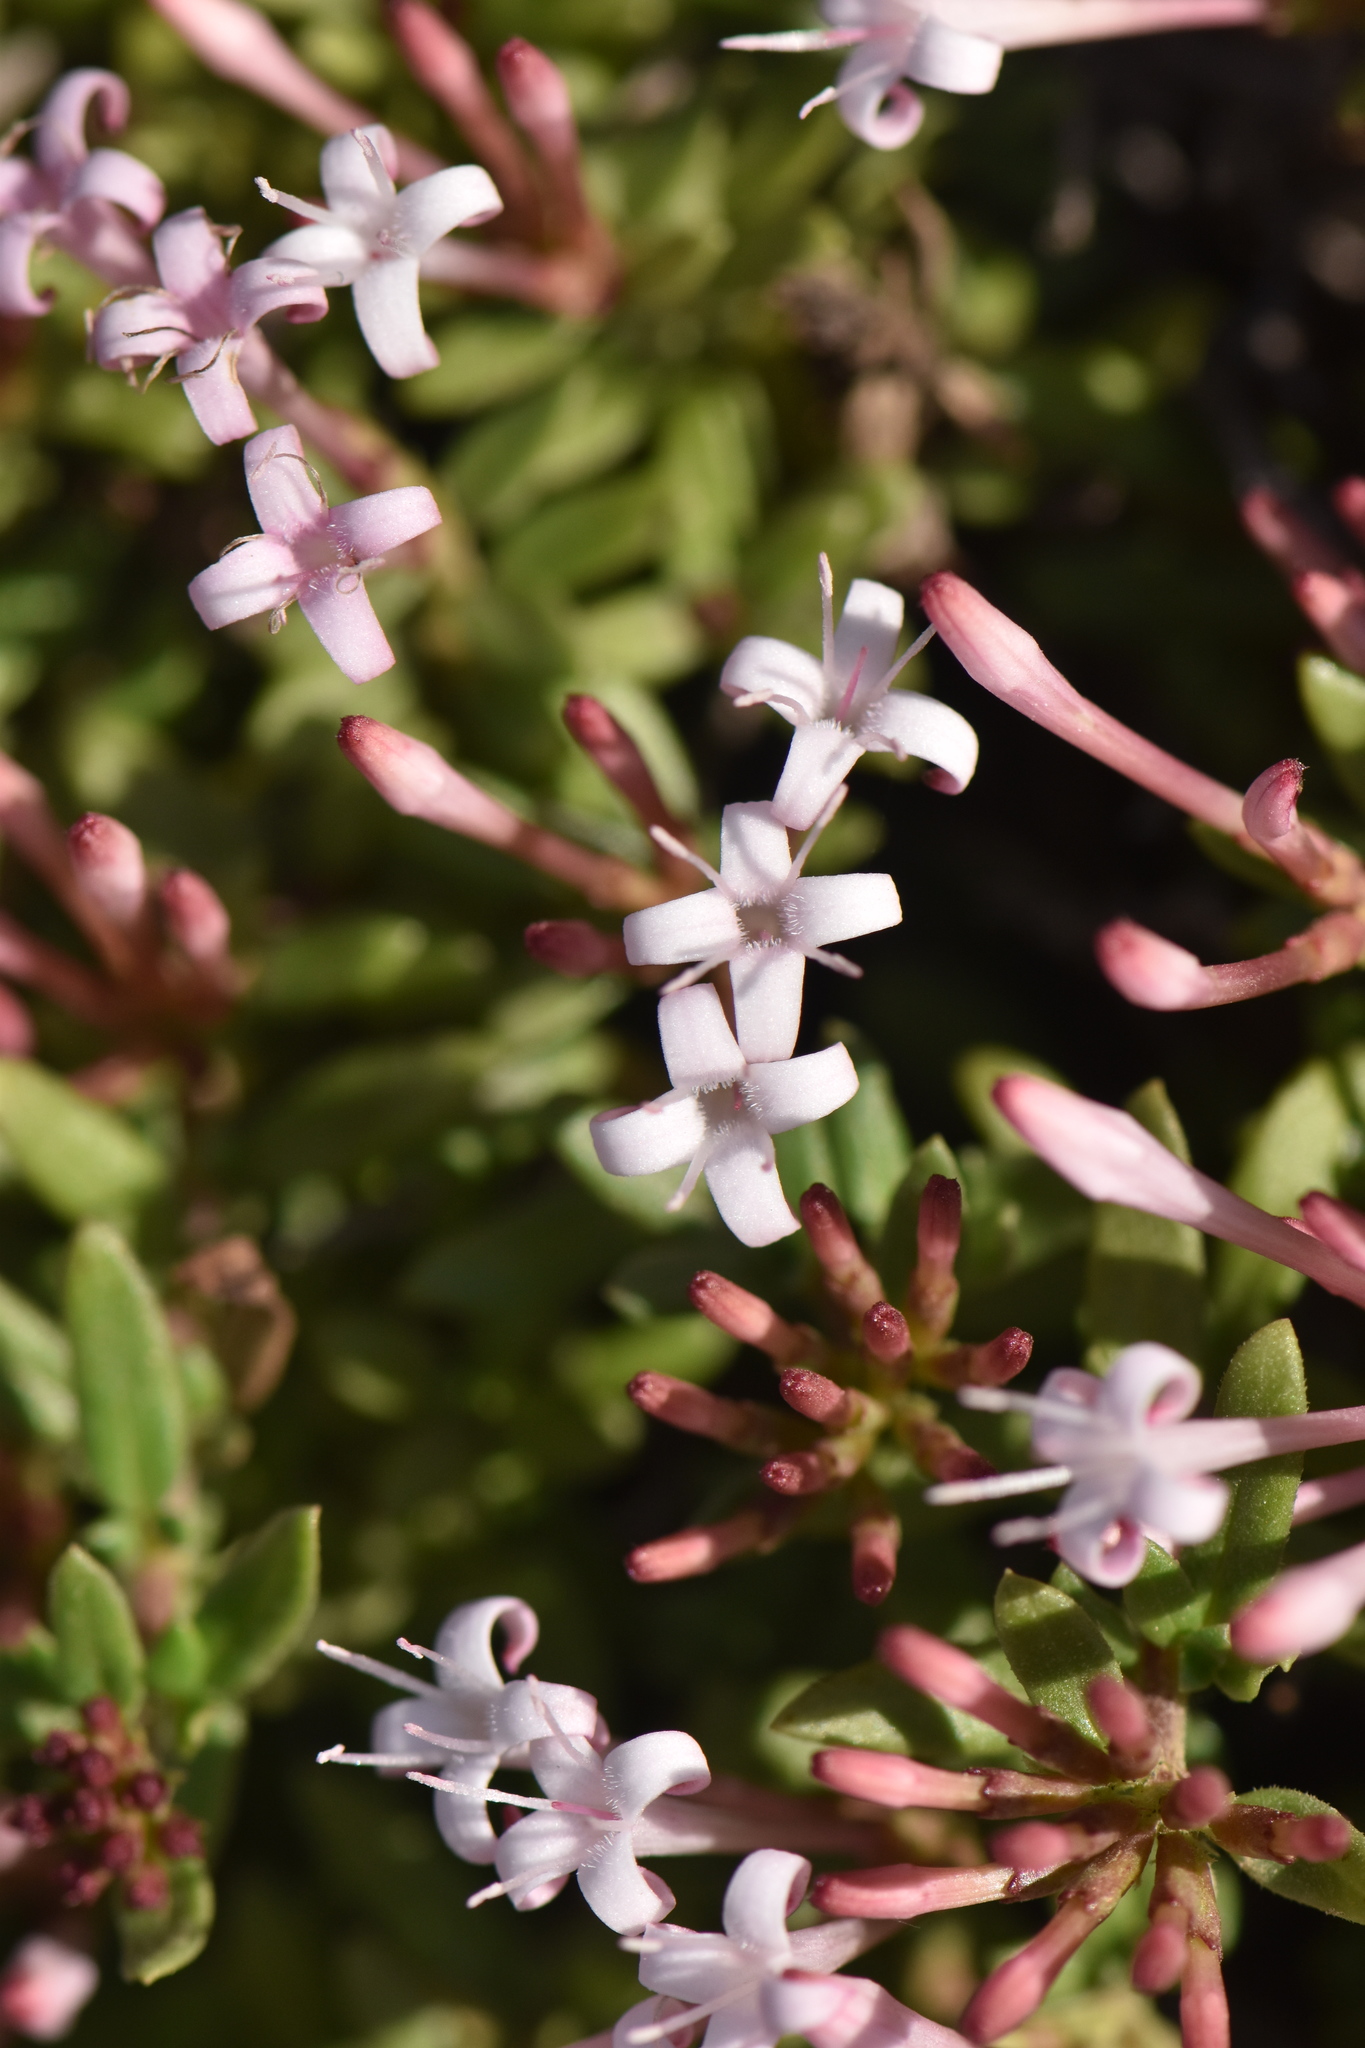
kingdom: Plantae
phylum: Tracheophyta
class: Magnoliopsida
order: Gentianales
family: Rubiaceae
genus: Plocama
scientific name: Plocama calabrica
